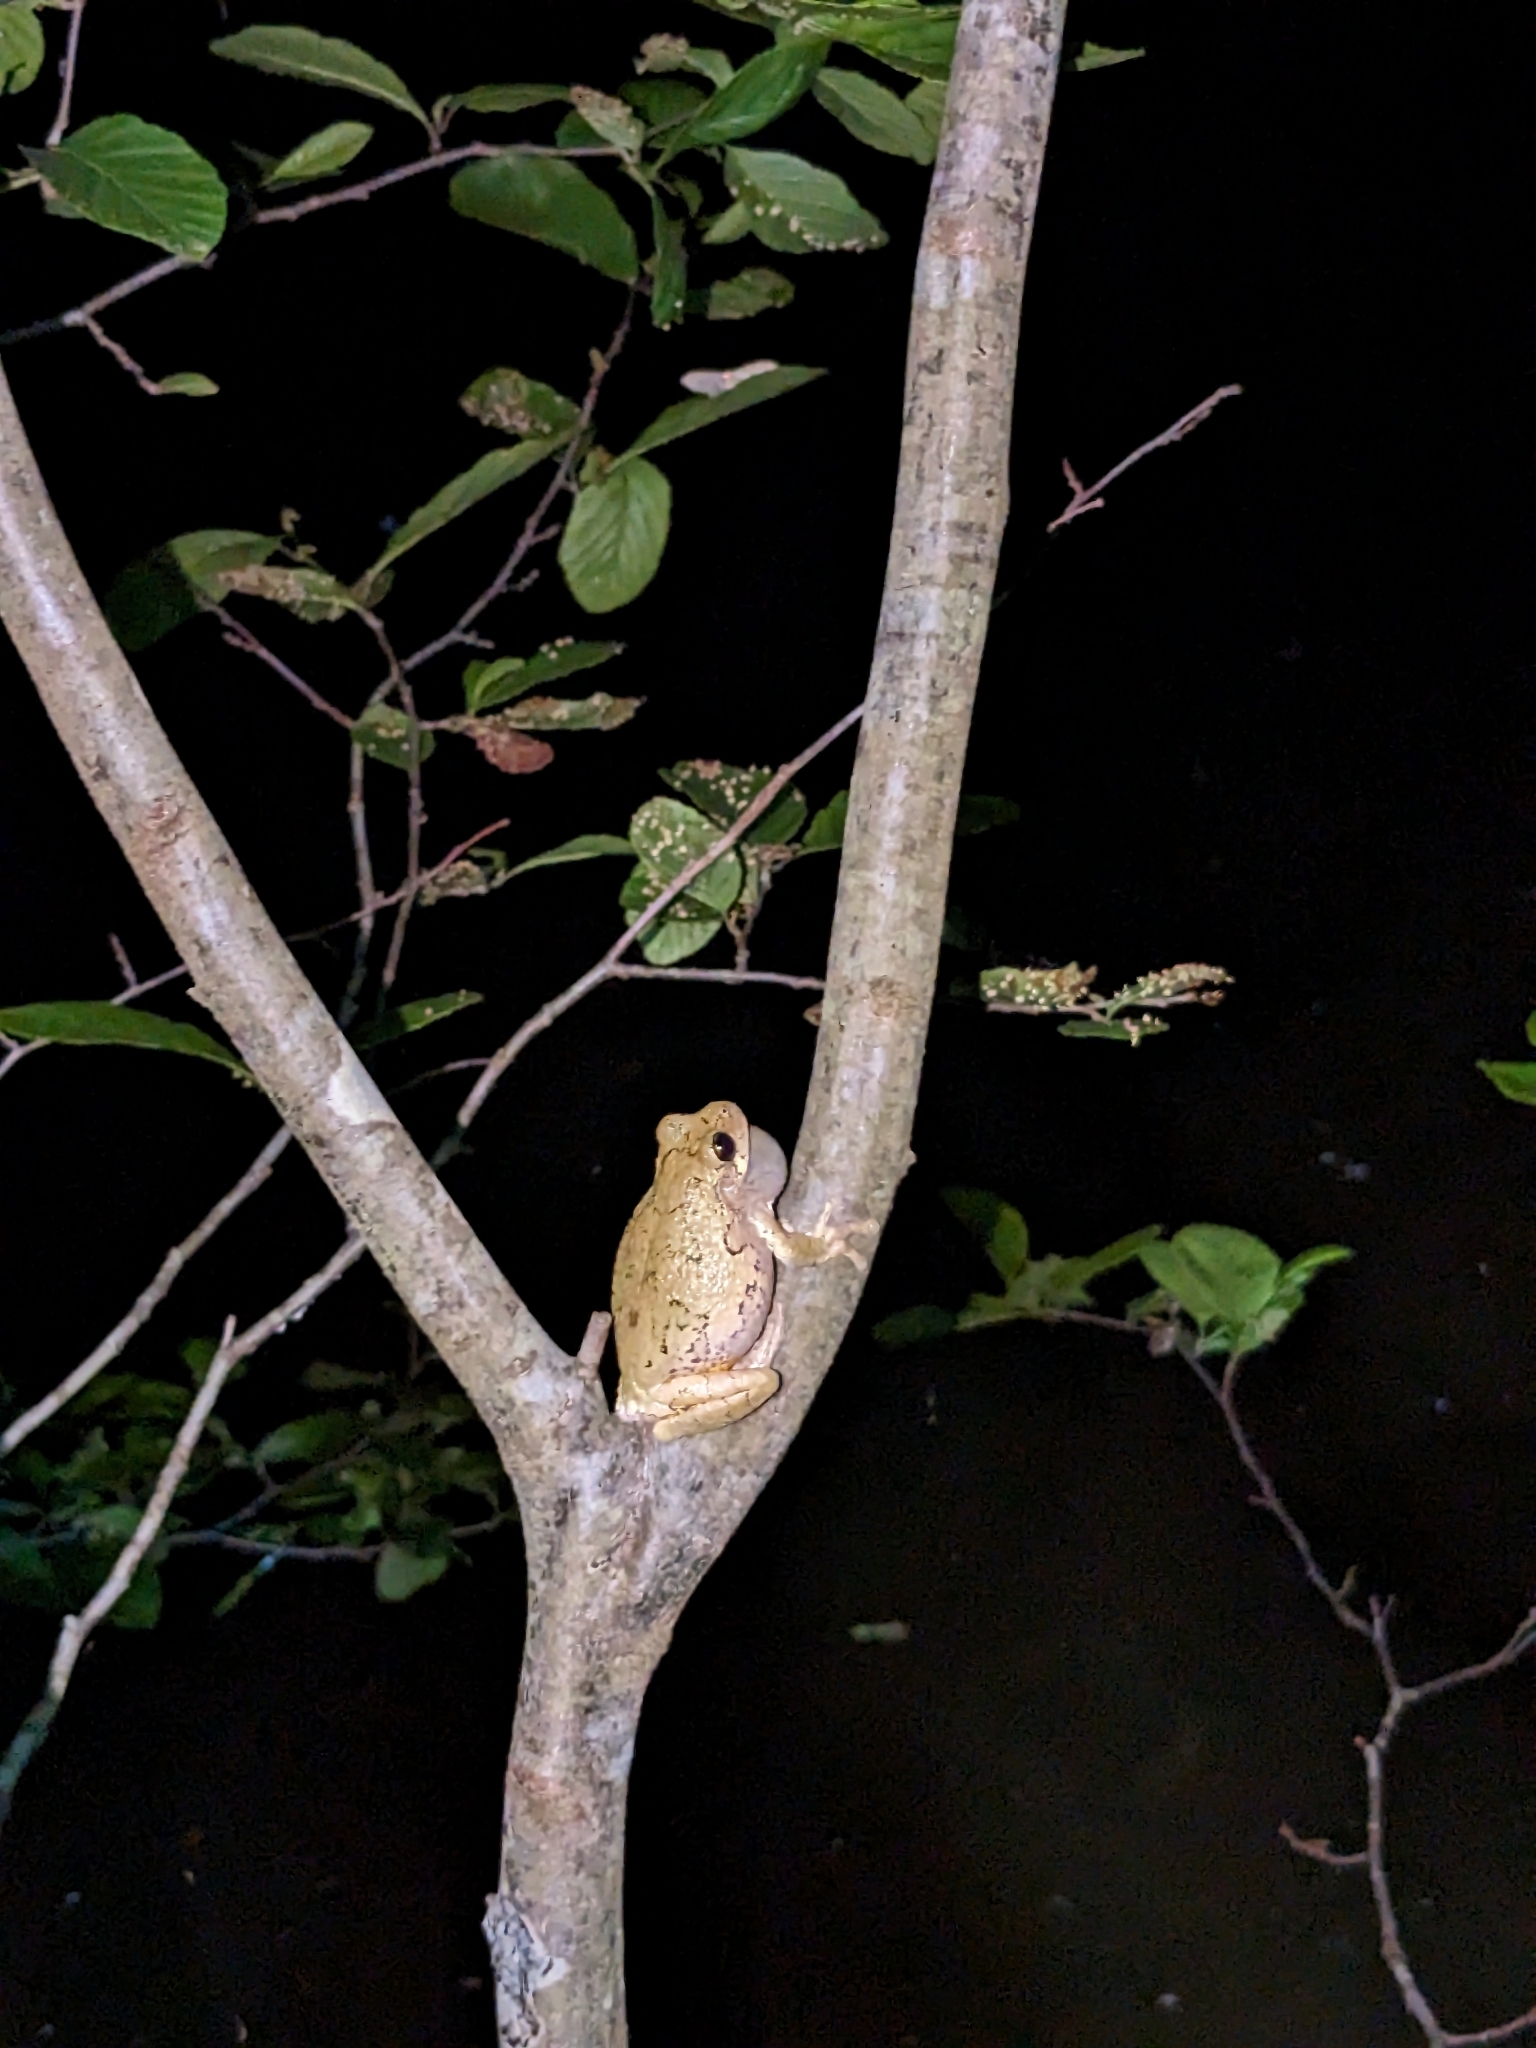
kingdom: Animalia
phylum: Chordata
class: Amphibia
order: Anura
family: Hylidae
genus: Dryophytes
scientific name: Dryophytes versicolor
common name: Gray treefrog
